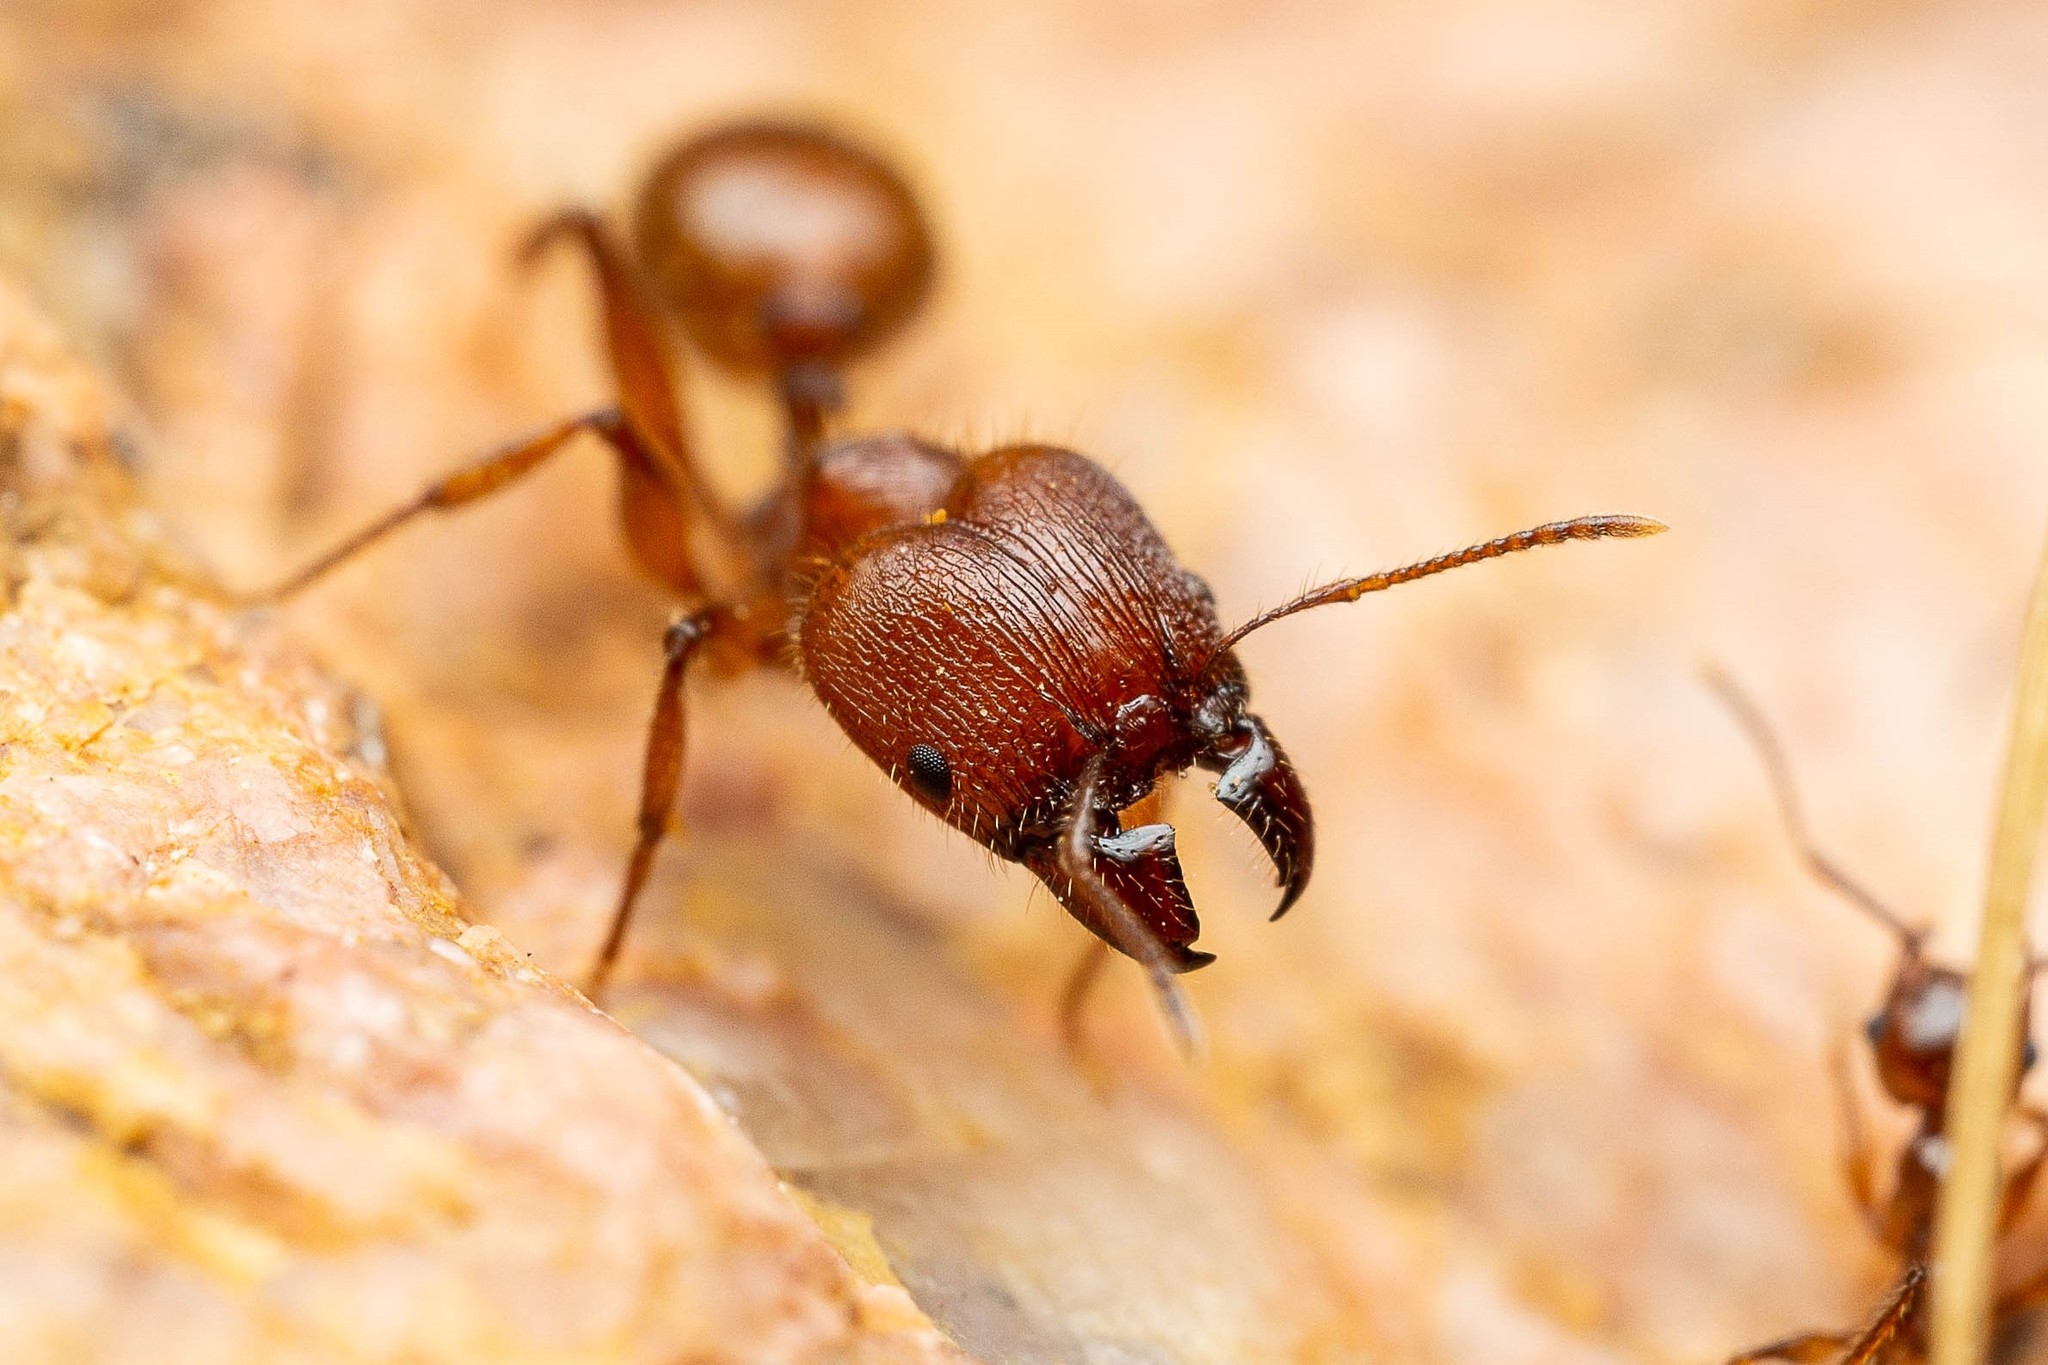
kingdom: Animalia
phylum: Arthropoda
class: Insecta
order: Hymenoptera
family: Formicidae
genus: Pheidole
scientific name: Pheidole titanis
